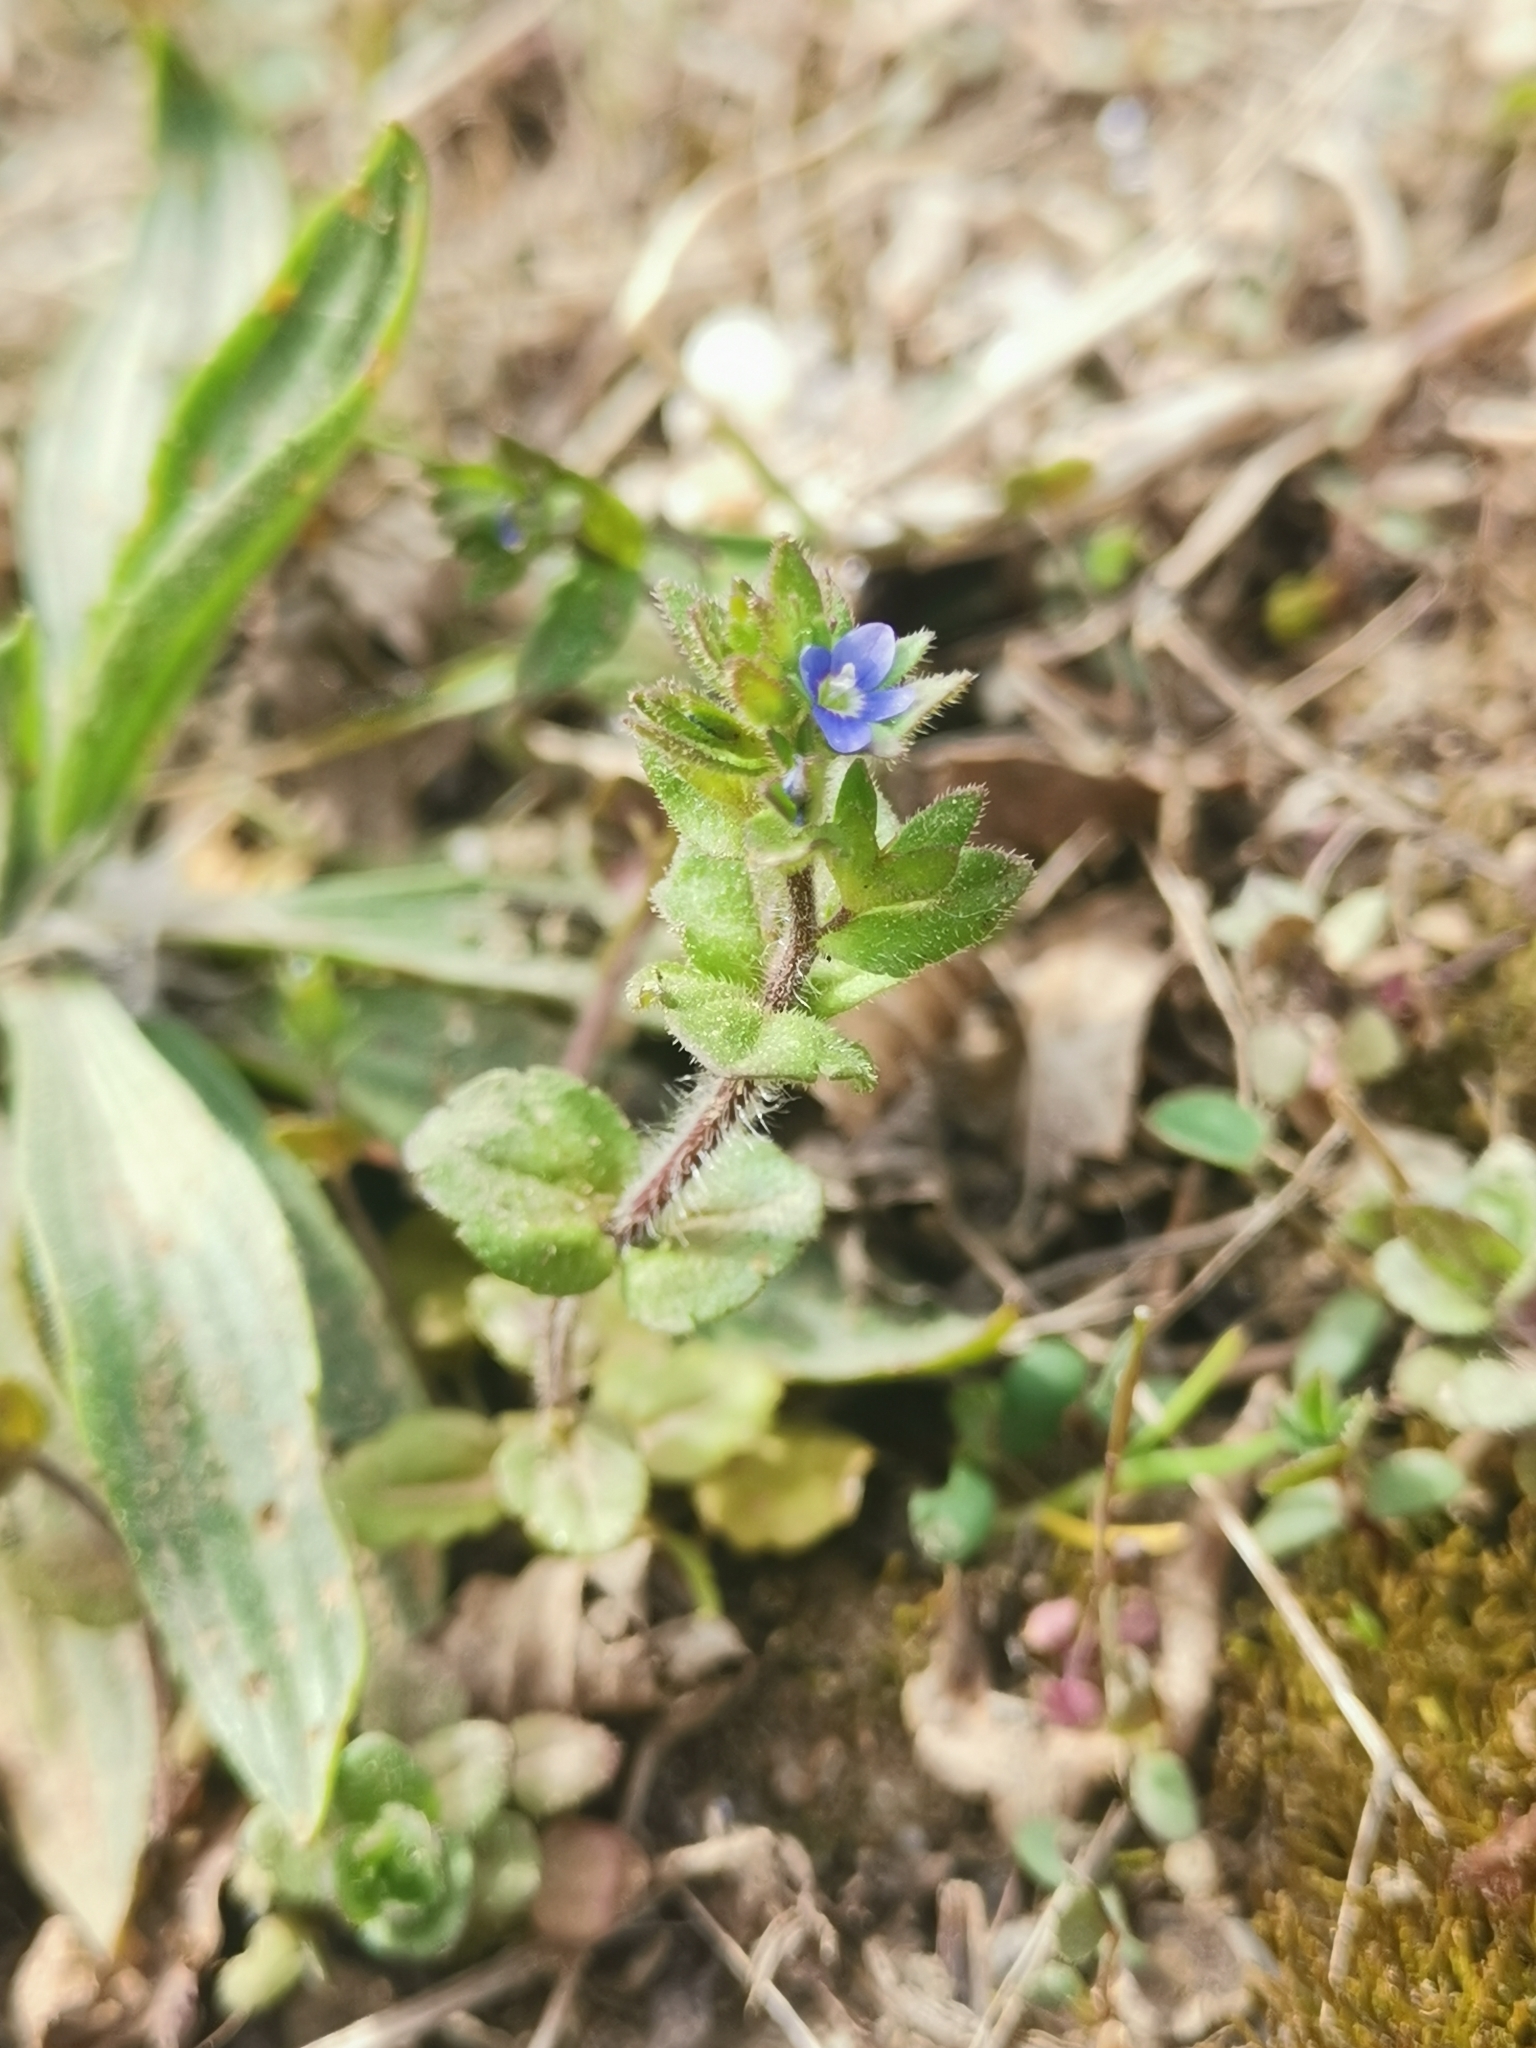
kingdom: Plantae
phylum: Tracheophyta
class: Magnoliopsida
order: Lamiales
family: Plantaginaceae
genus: Veronica
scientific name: Veronica arvensis
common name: Corn speedwell
